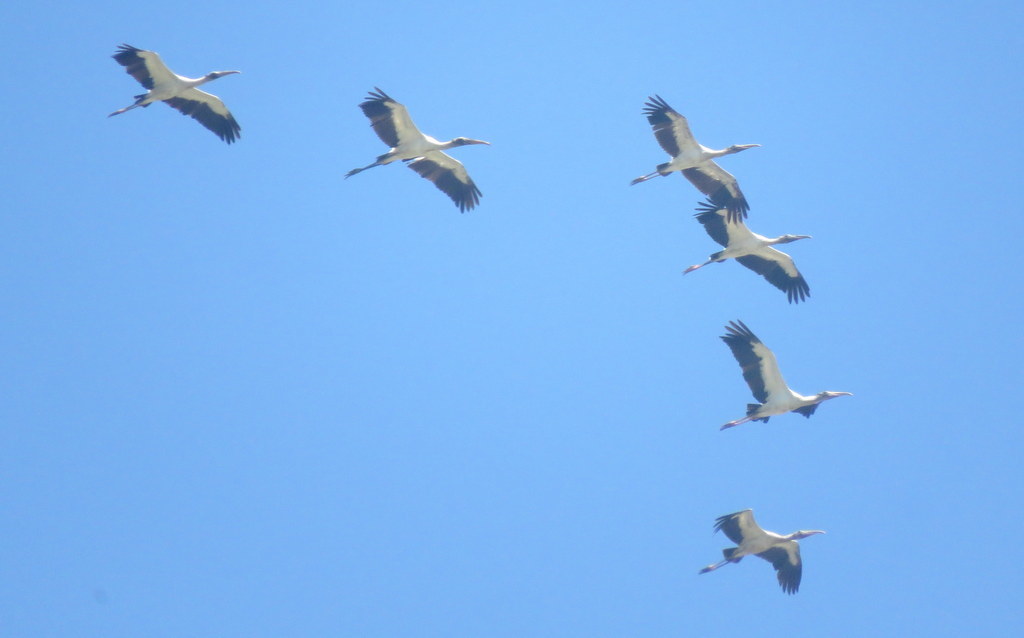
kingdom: Animalia
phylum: Chordata
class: Aves
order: Ciconiiformes
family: Ciconiidae
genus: Mycteria
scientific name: Mycteria americana
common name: Wood stork
